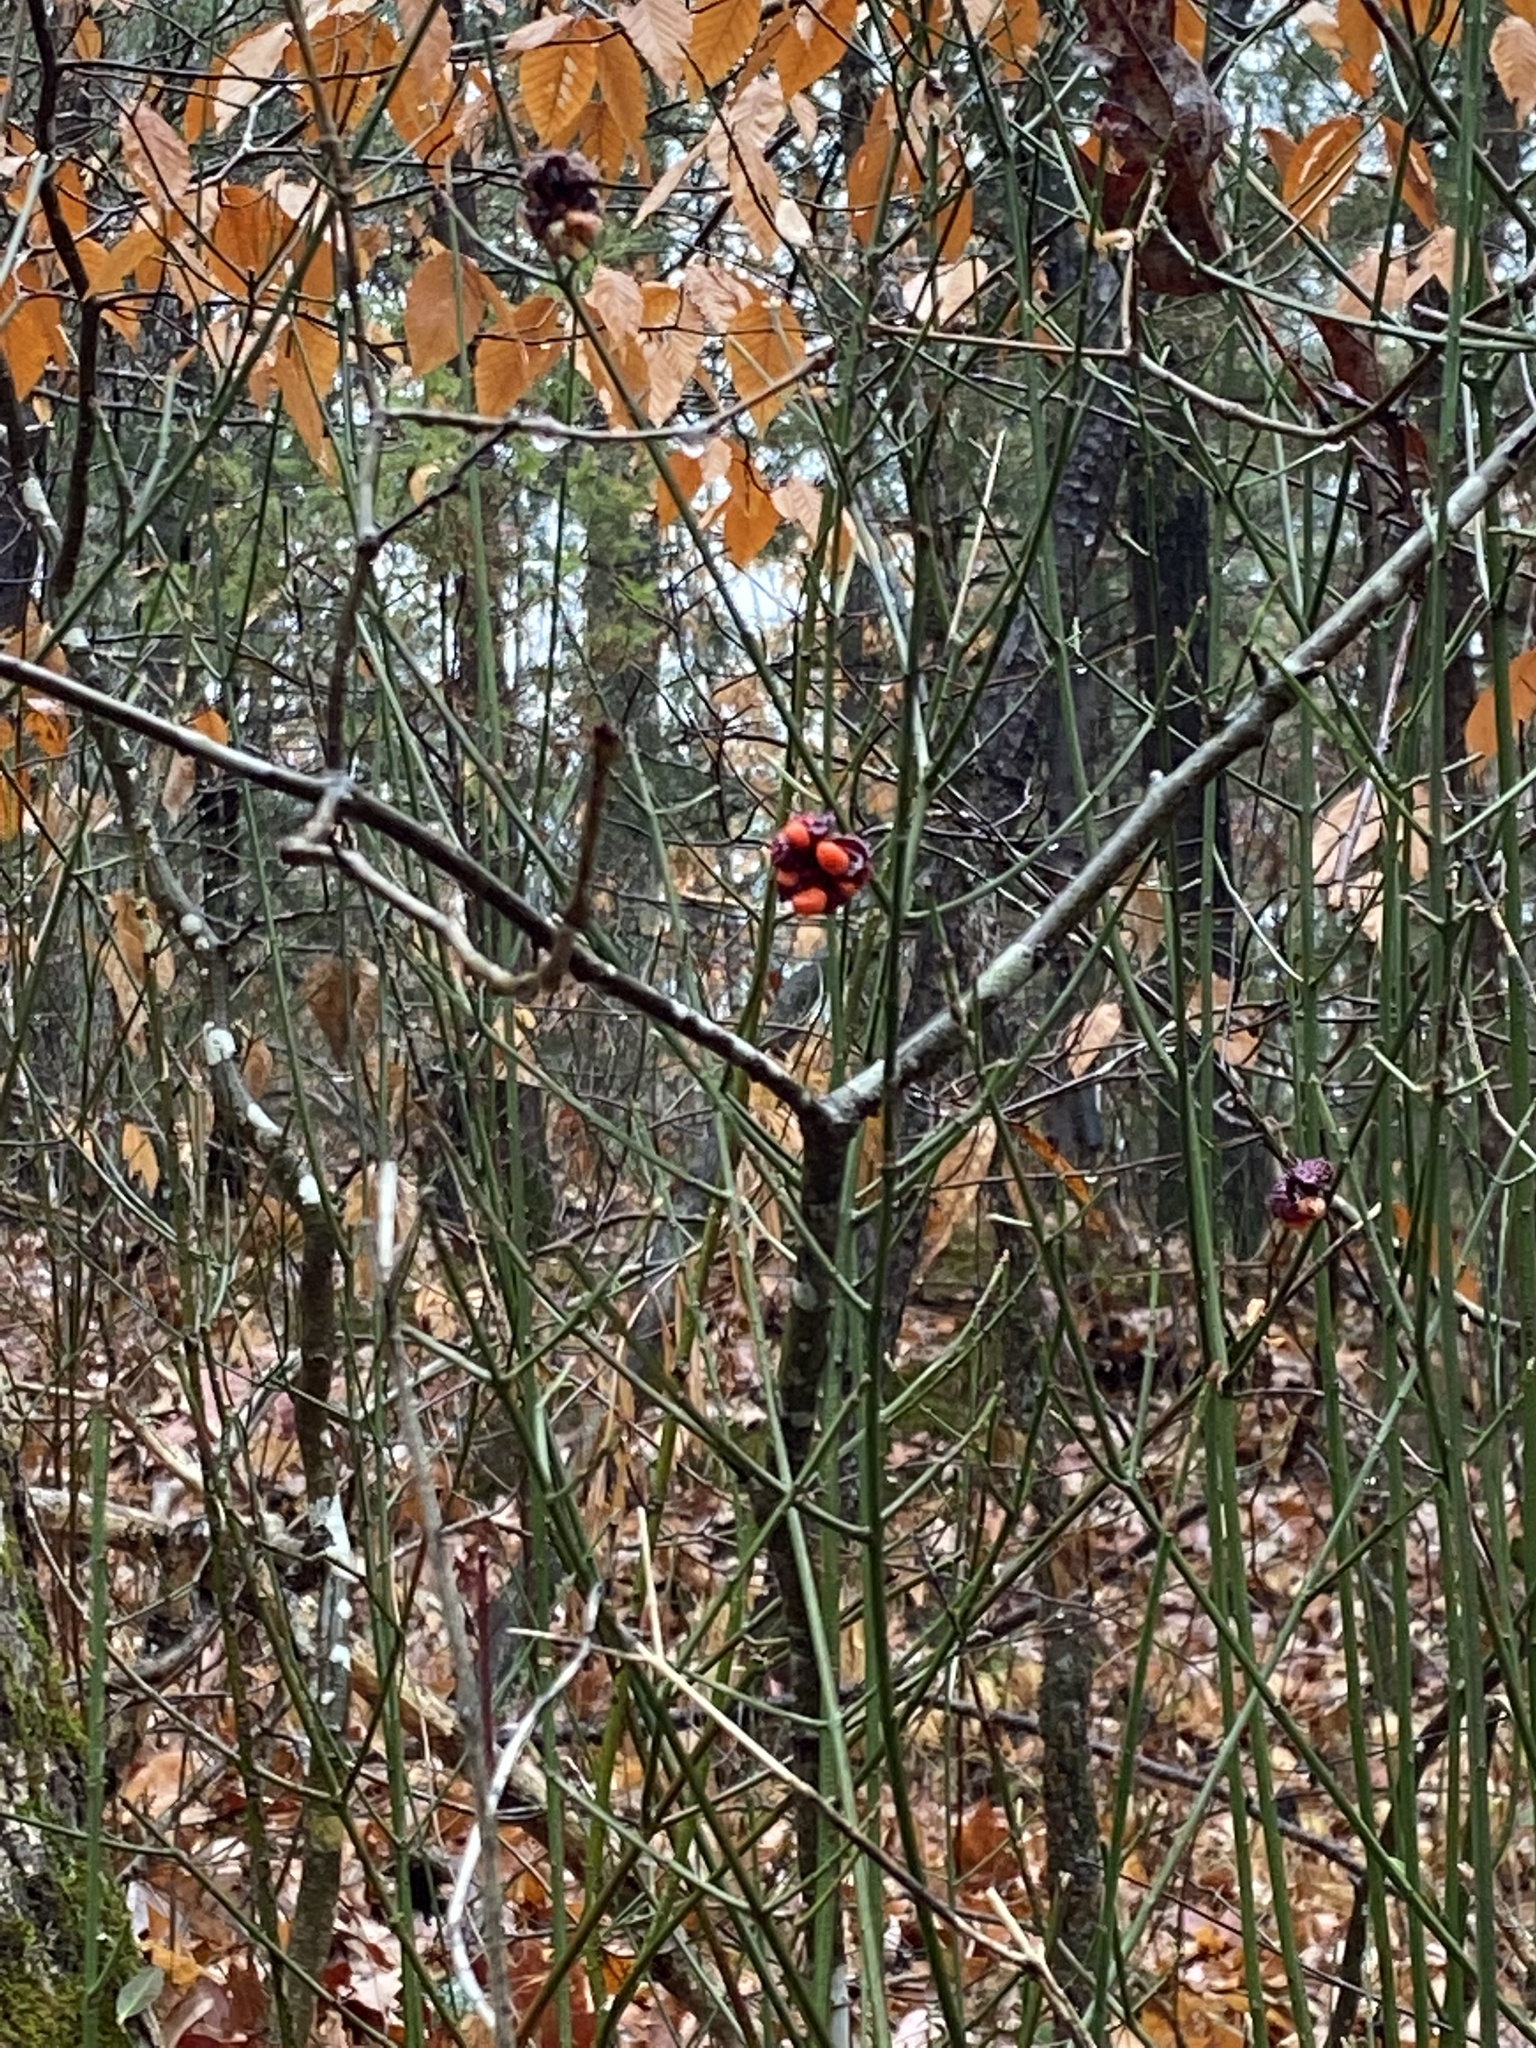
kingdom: Plantae
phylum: Tracheophyta
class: Magnoliopsida
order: Celastrales
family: Celastraceae
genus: Euonymus
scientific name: Euonymus americanus
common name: Bursting-heart
